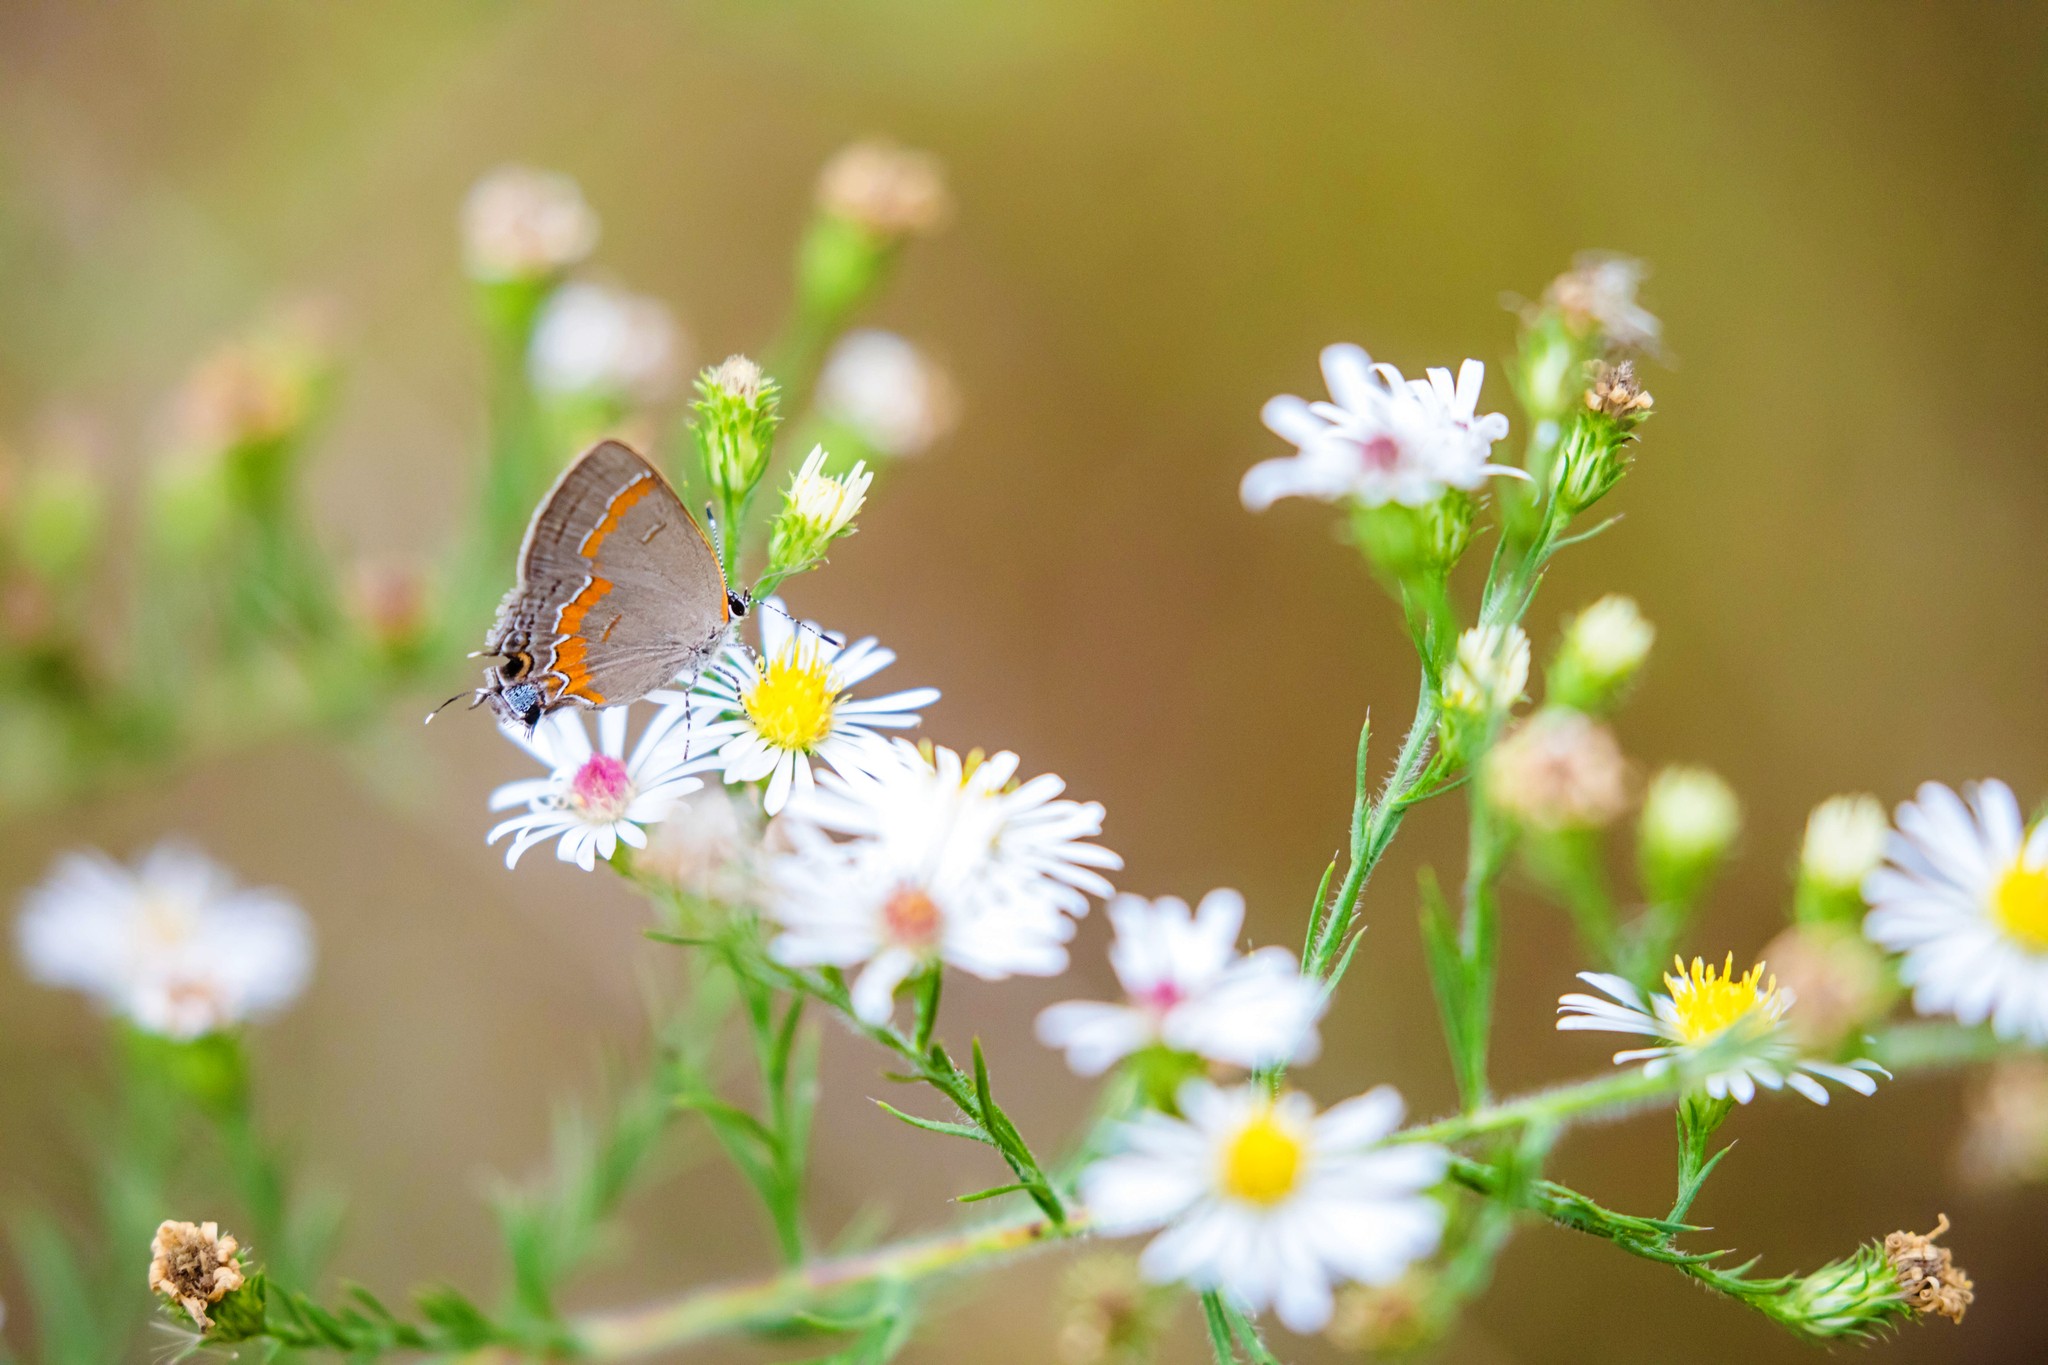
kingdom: Animalia
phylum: Arthropoda
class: Insecta
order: Lepidoptera
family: Lycaenidae
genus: Calycopis
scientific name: Calycopis cecrops
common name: Red-banded hairstreak
